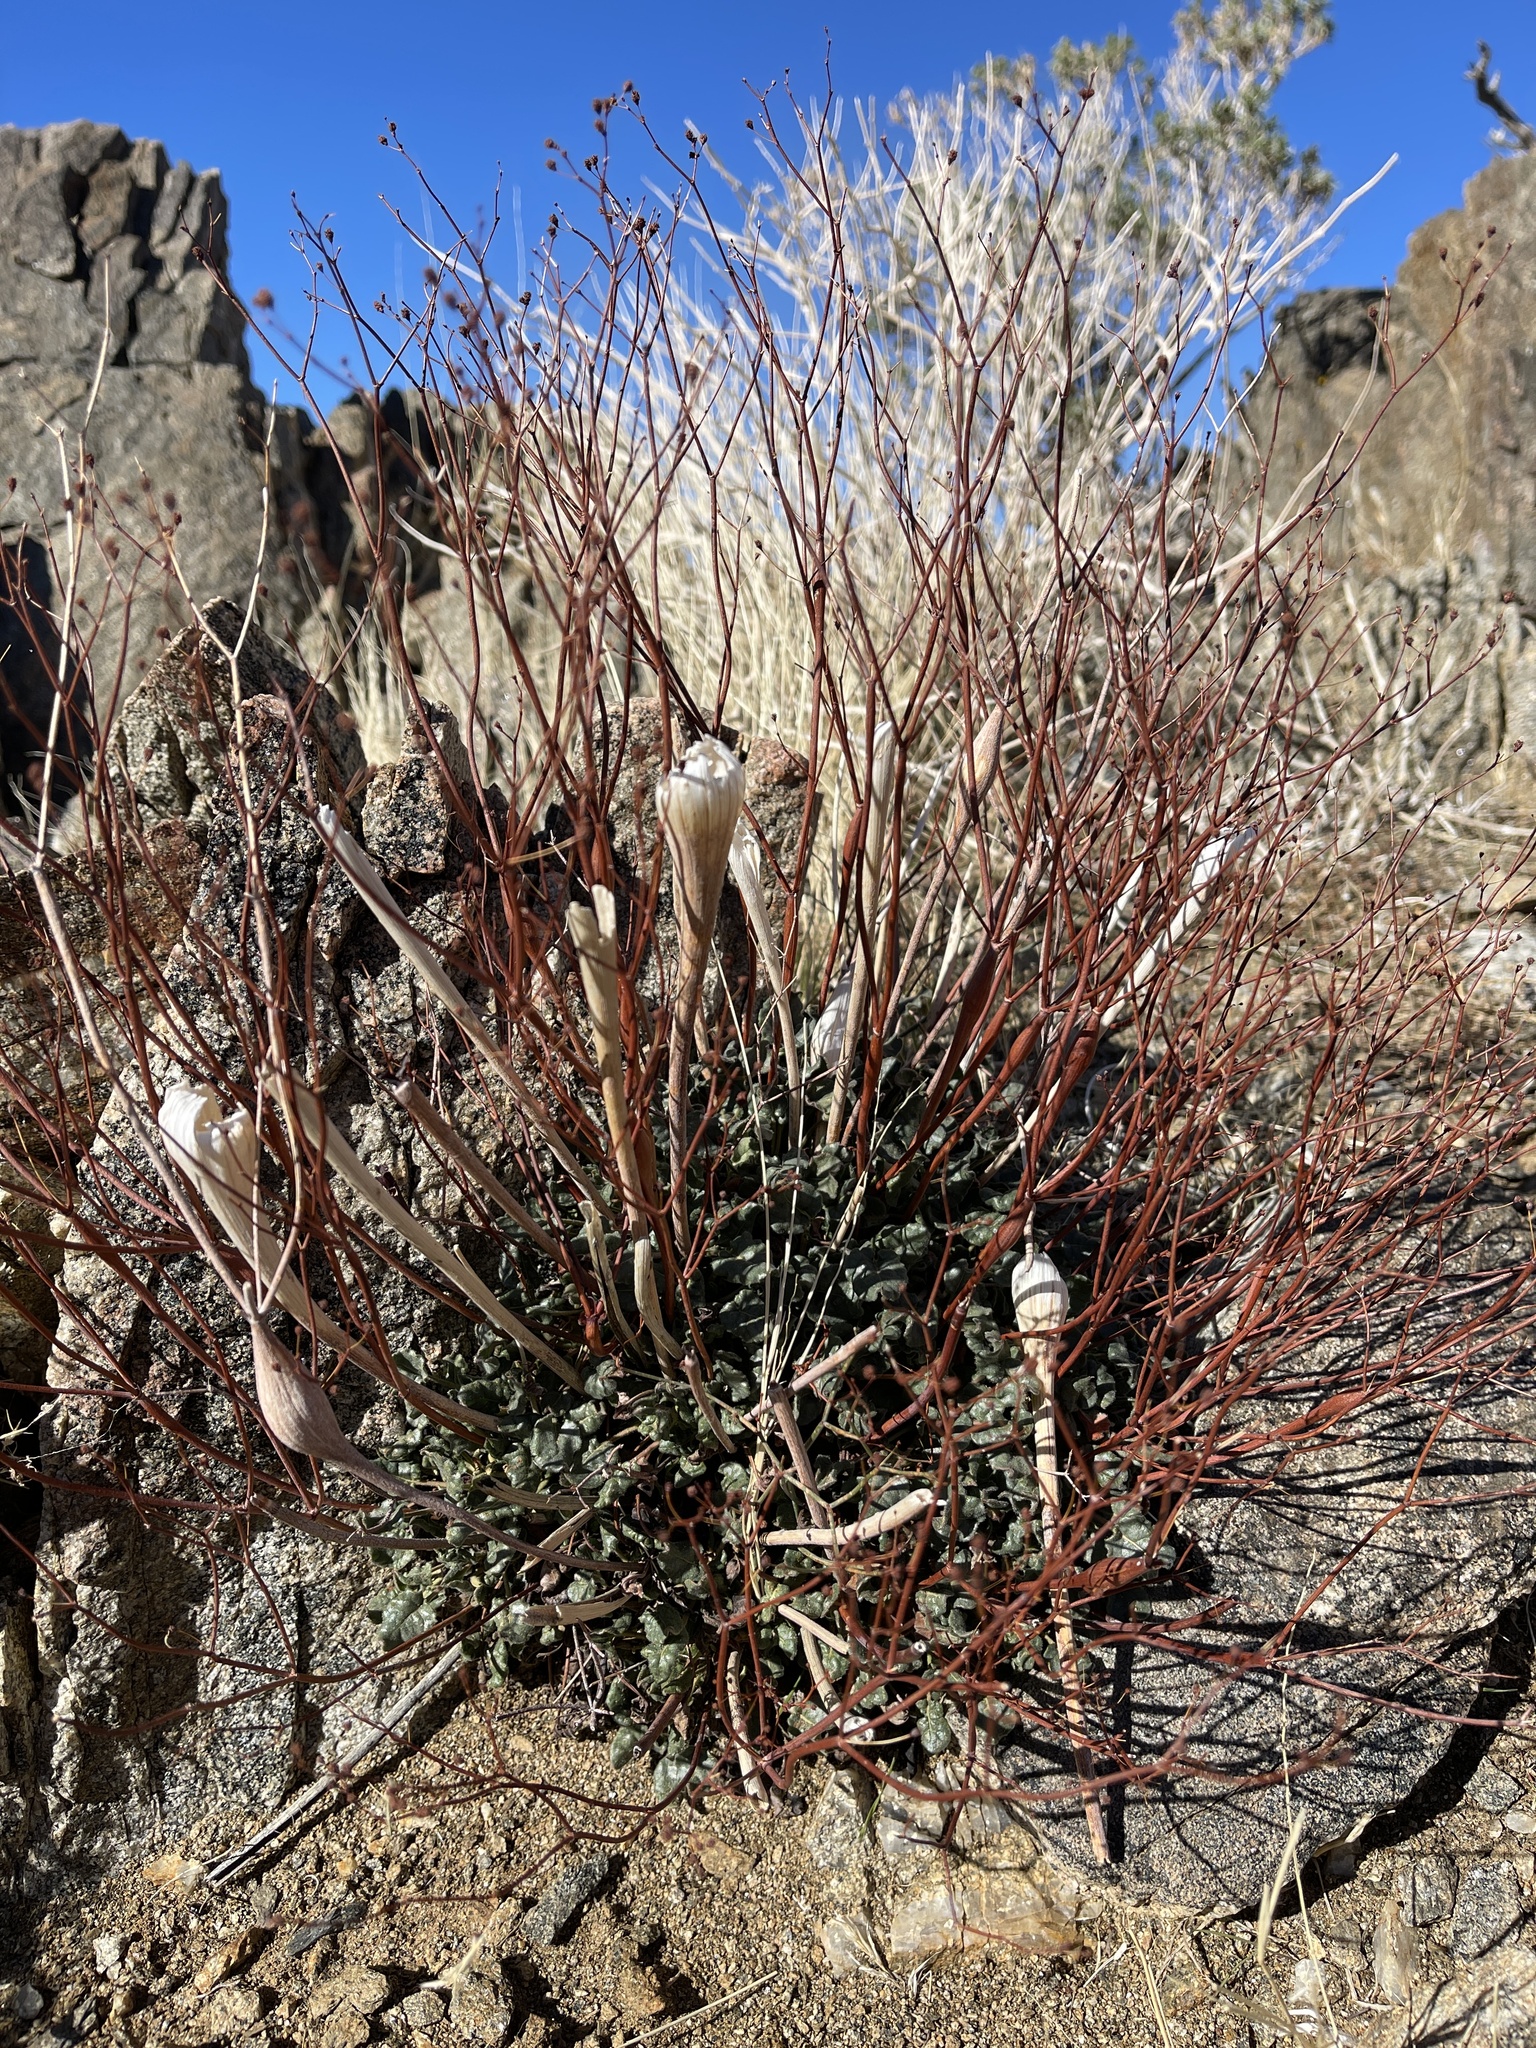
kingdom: Plantae
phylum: Tracheophyta
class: Magnoliopsida
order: Caryophyllales
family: Polygonaceae
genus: Eriogonum
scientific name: Eriogonum inflatum
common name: Desert trumpet
